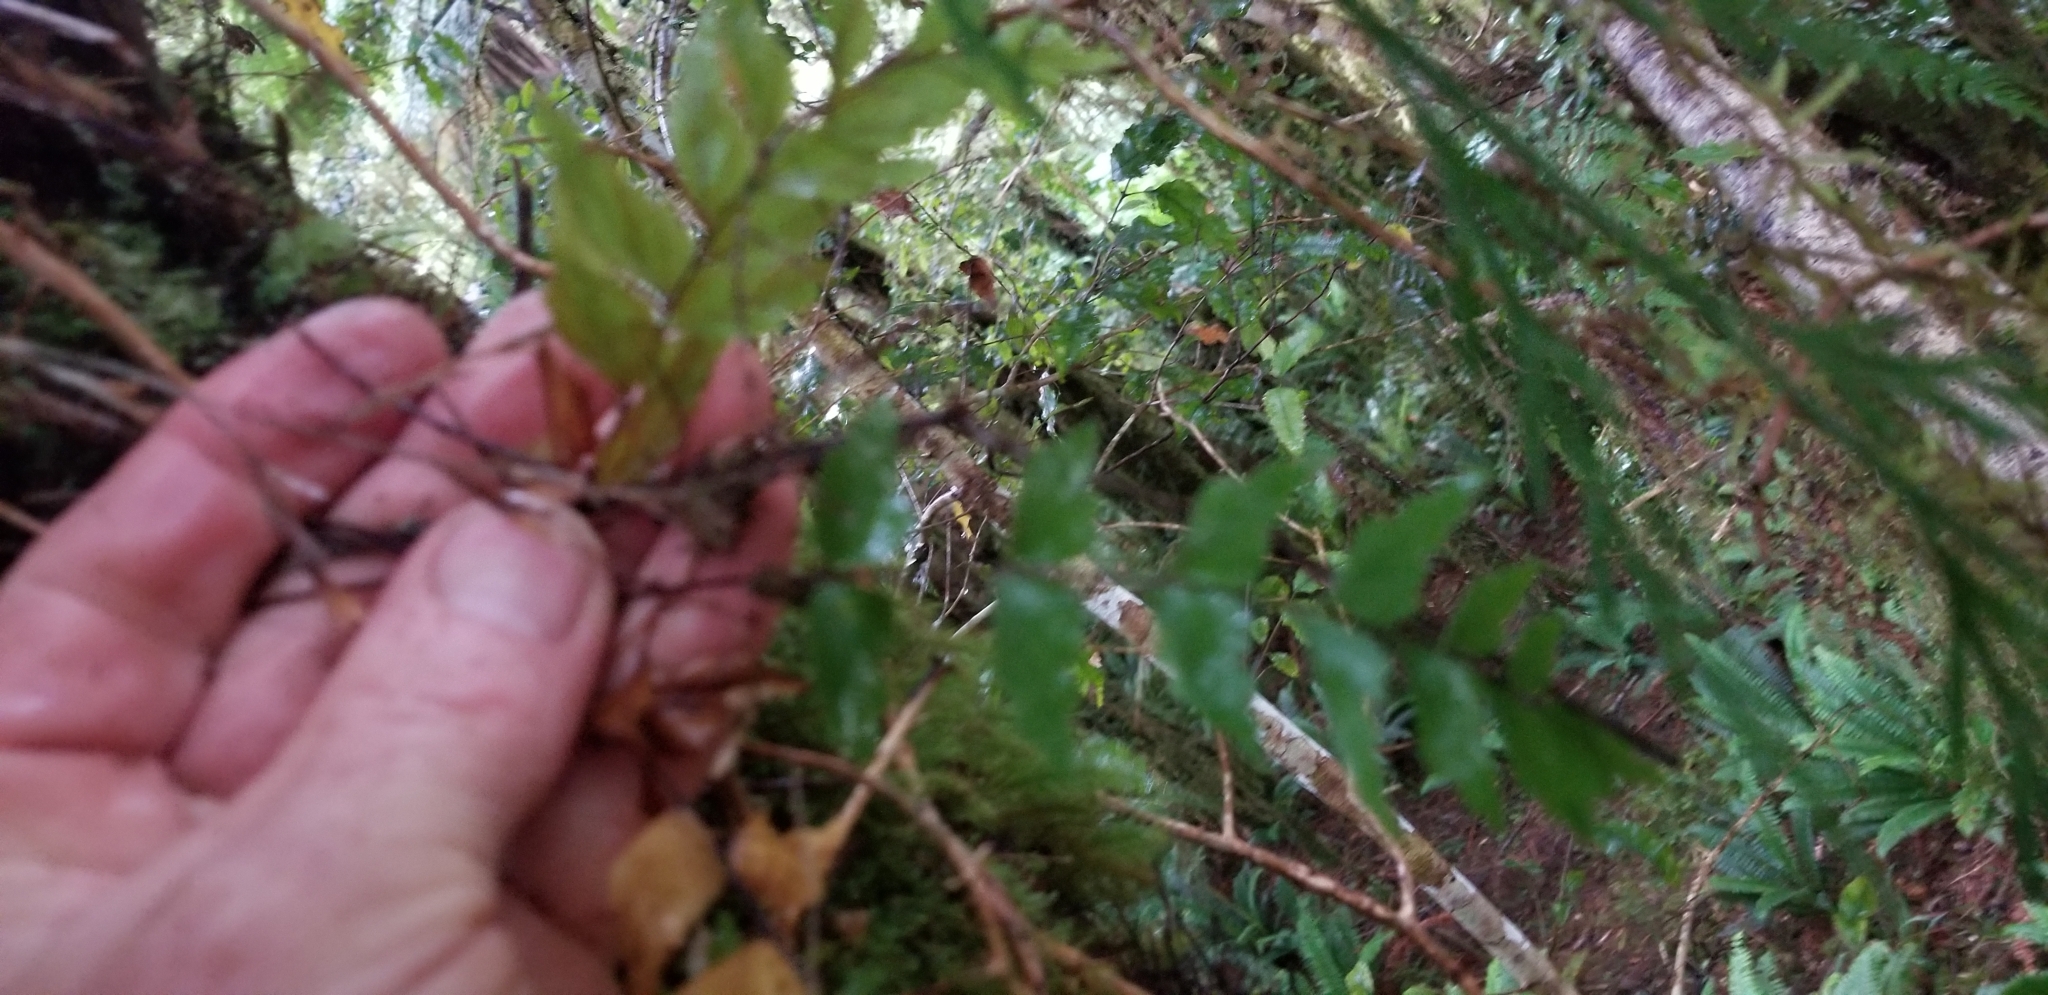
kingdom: Plantae
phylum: Tracheophyta
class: Polypodiopsida
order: Polypodiales
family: Aspleniaceae
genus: Asplenium
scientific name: Asplenium polyodon
